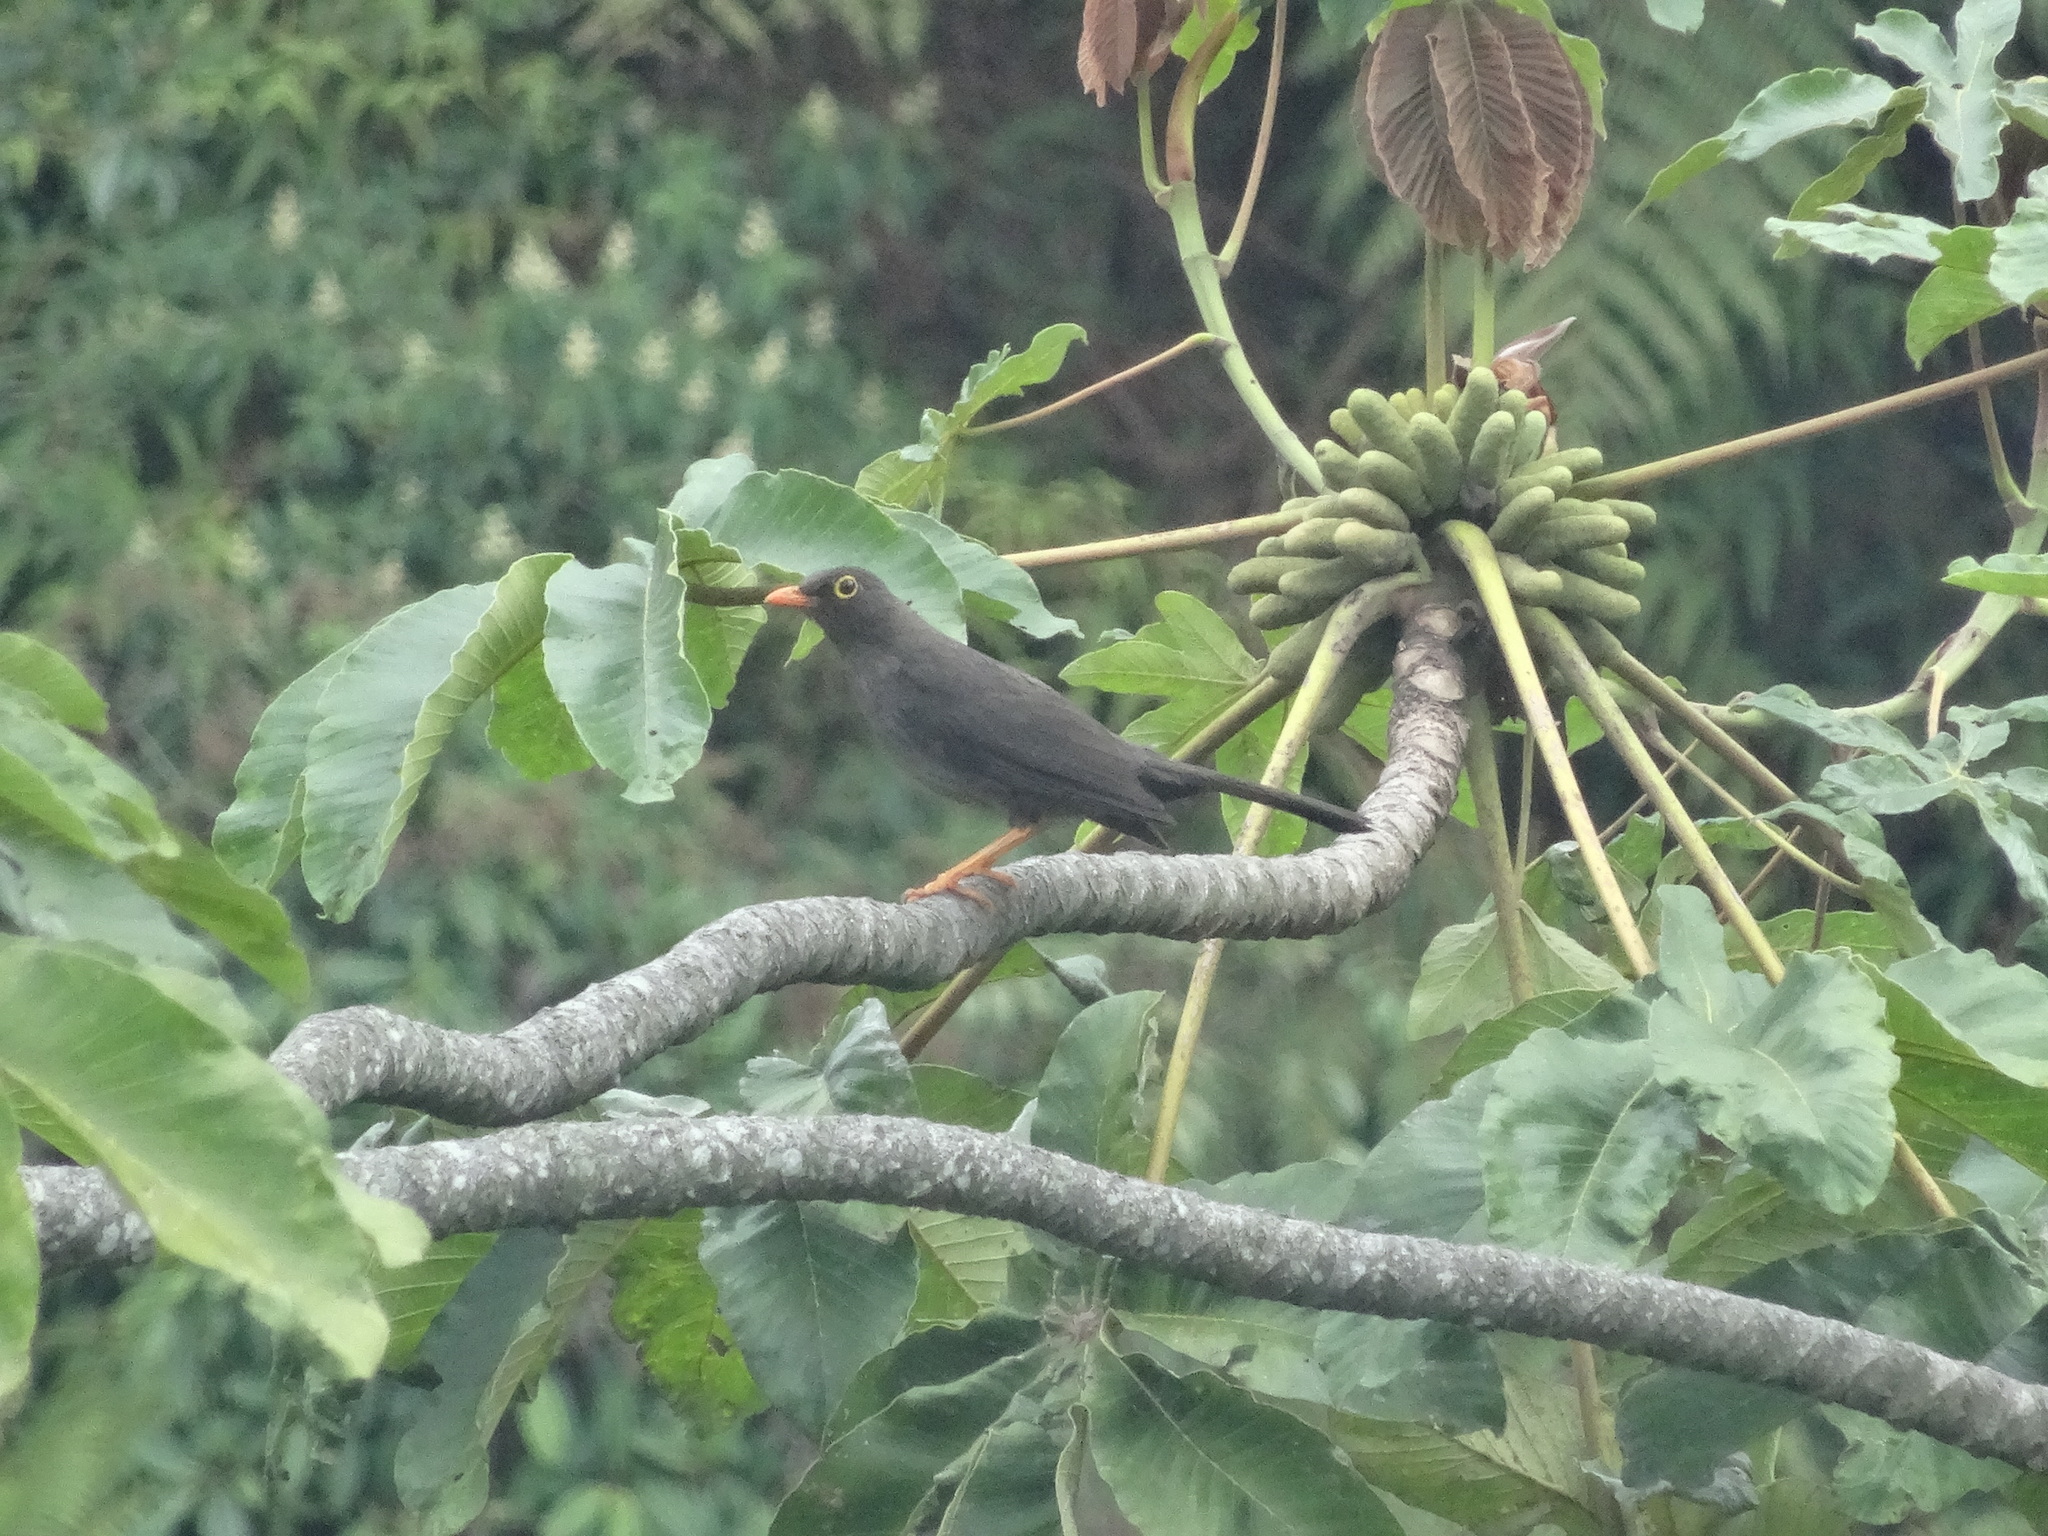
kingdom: Animalia
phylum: Chordata
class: Aves
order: Passeriformes
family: Turdidae
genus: Turdus
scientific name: Turdus fuscater
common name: Great thrush
